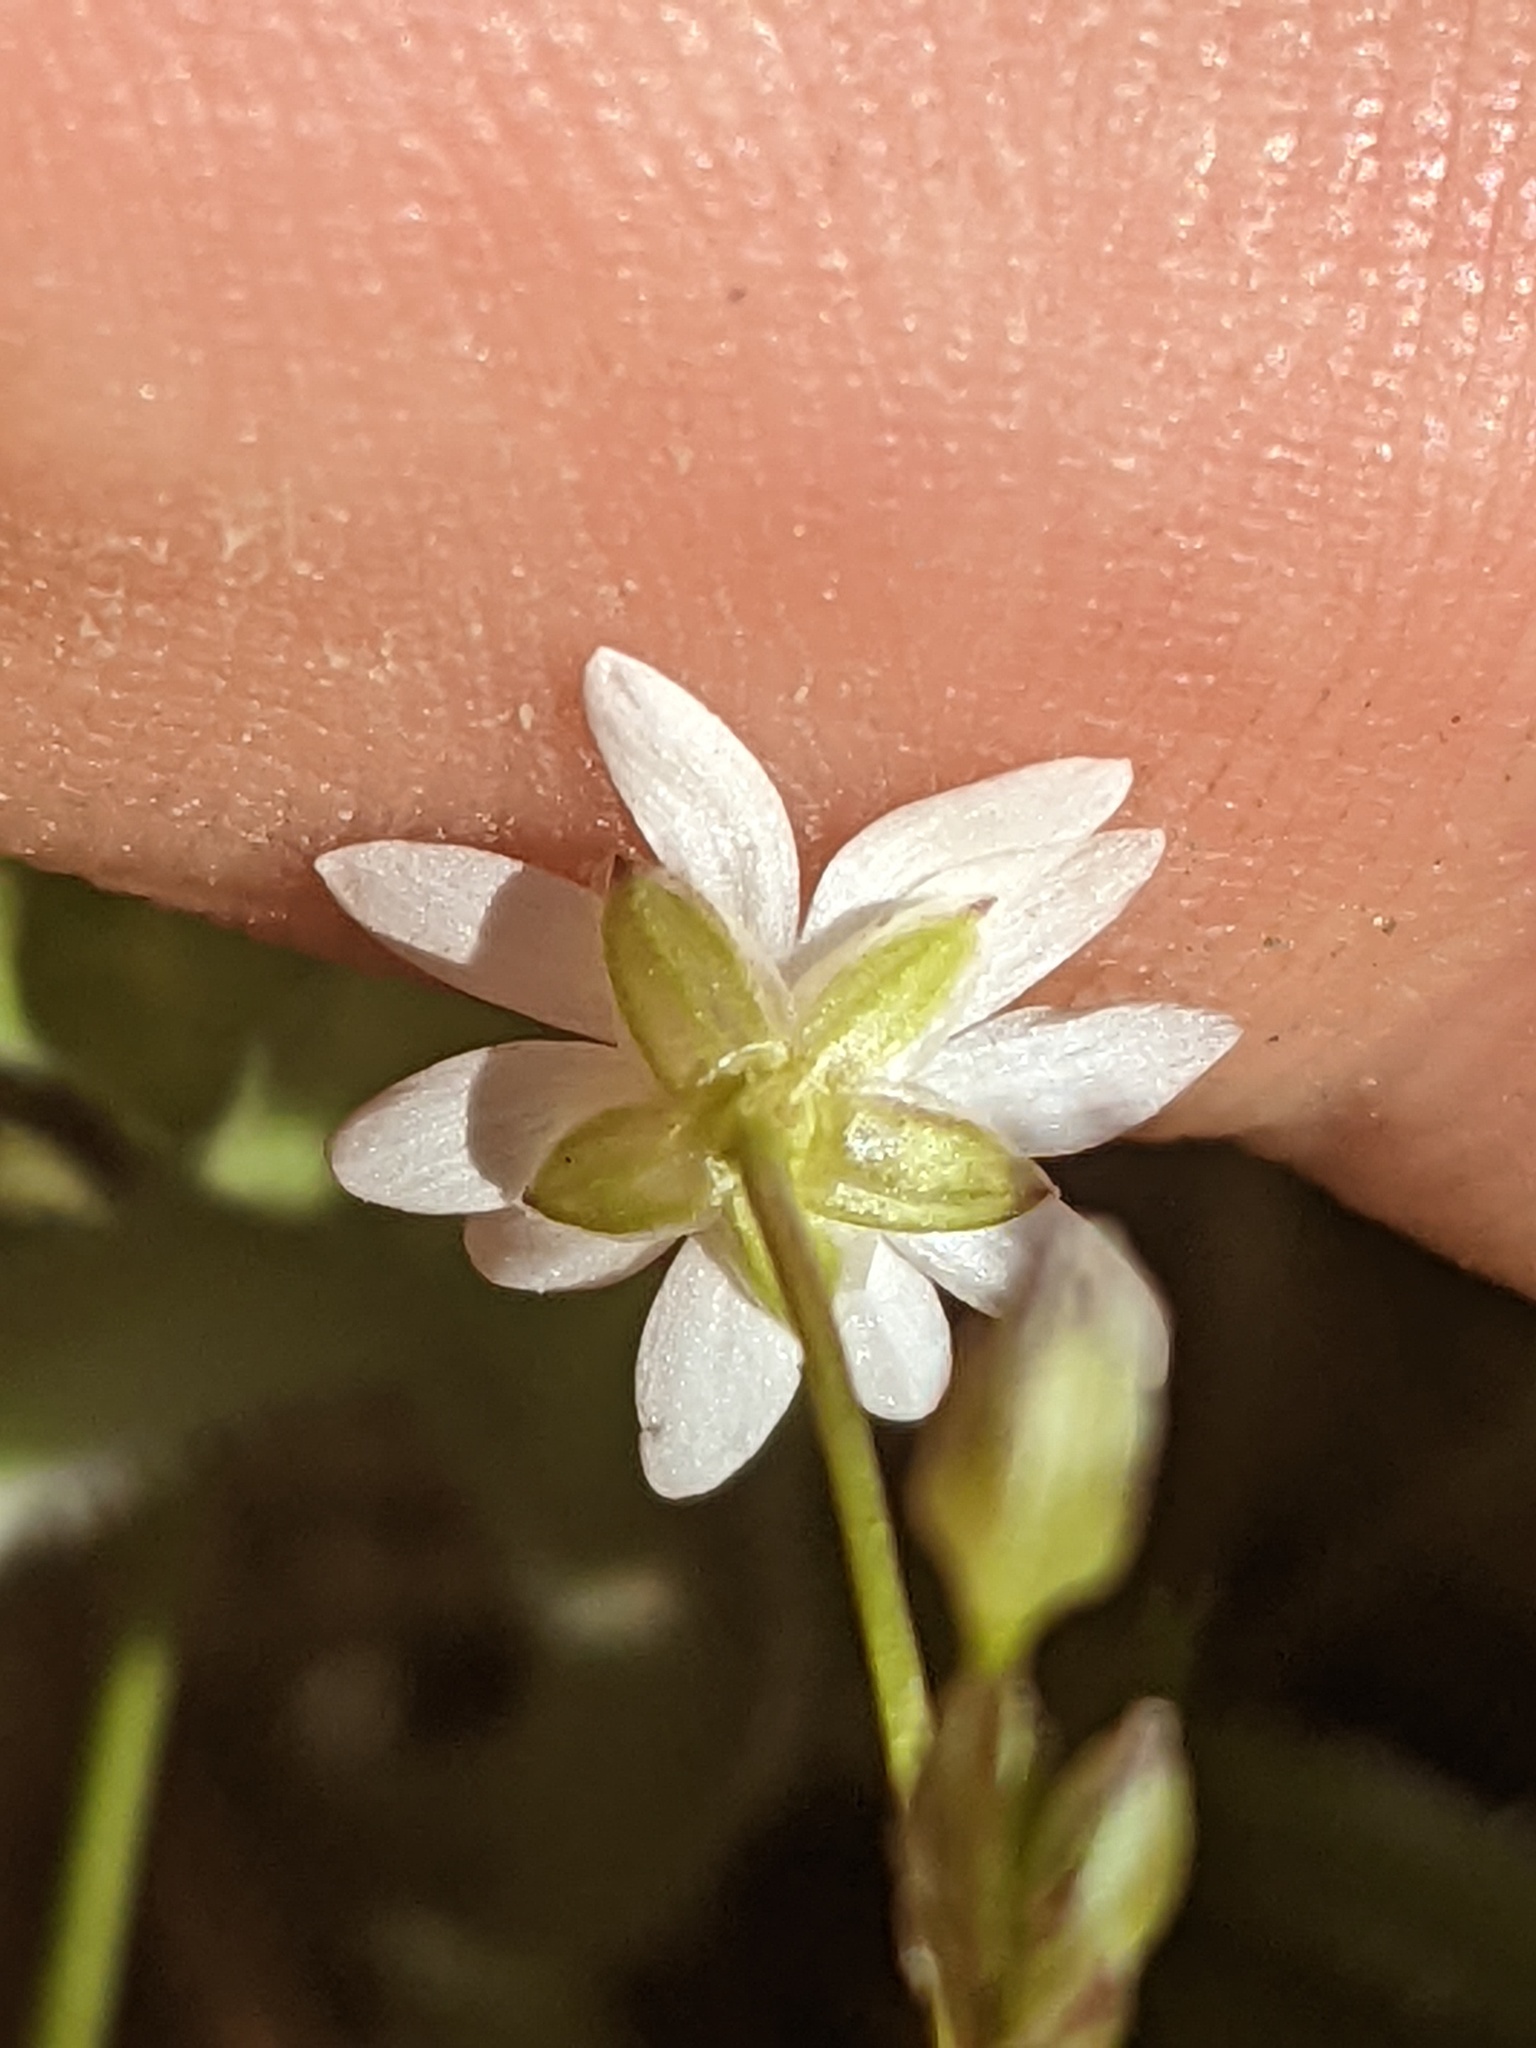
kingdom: Plantae
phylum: Tracheophyta
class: Magnoliopsida
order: Caryophyllales
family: Caryophyllaceae
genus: Stellaria
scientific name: Stellaria longipes
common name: Goldie's starwort
